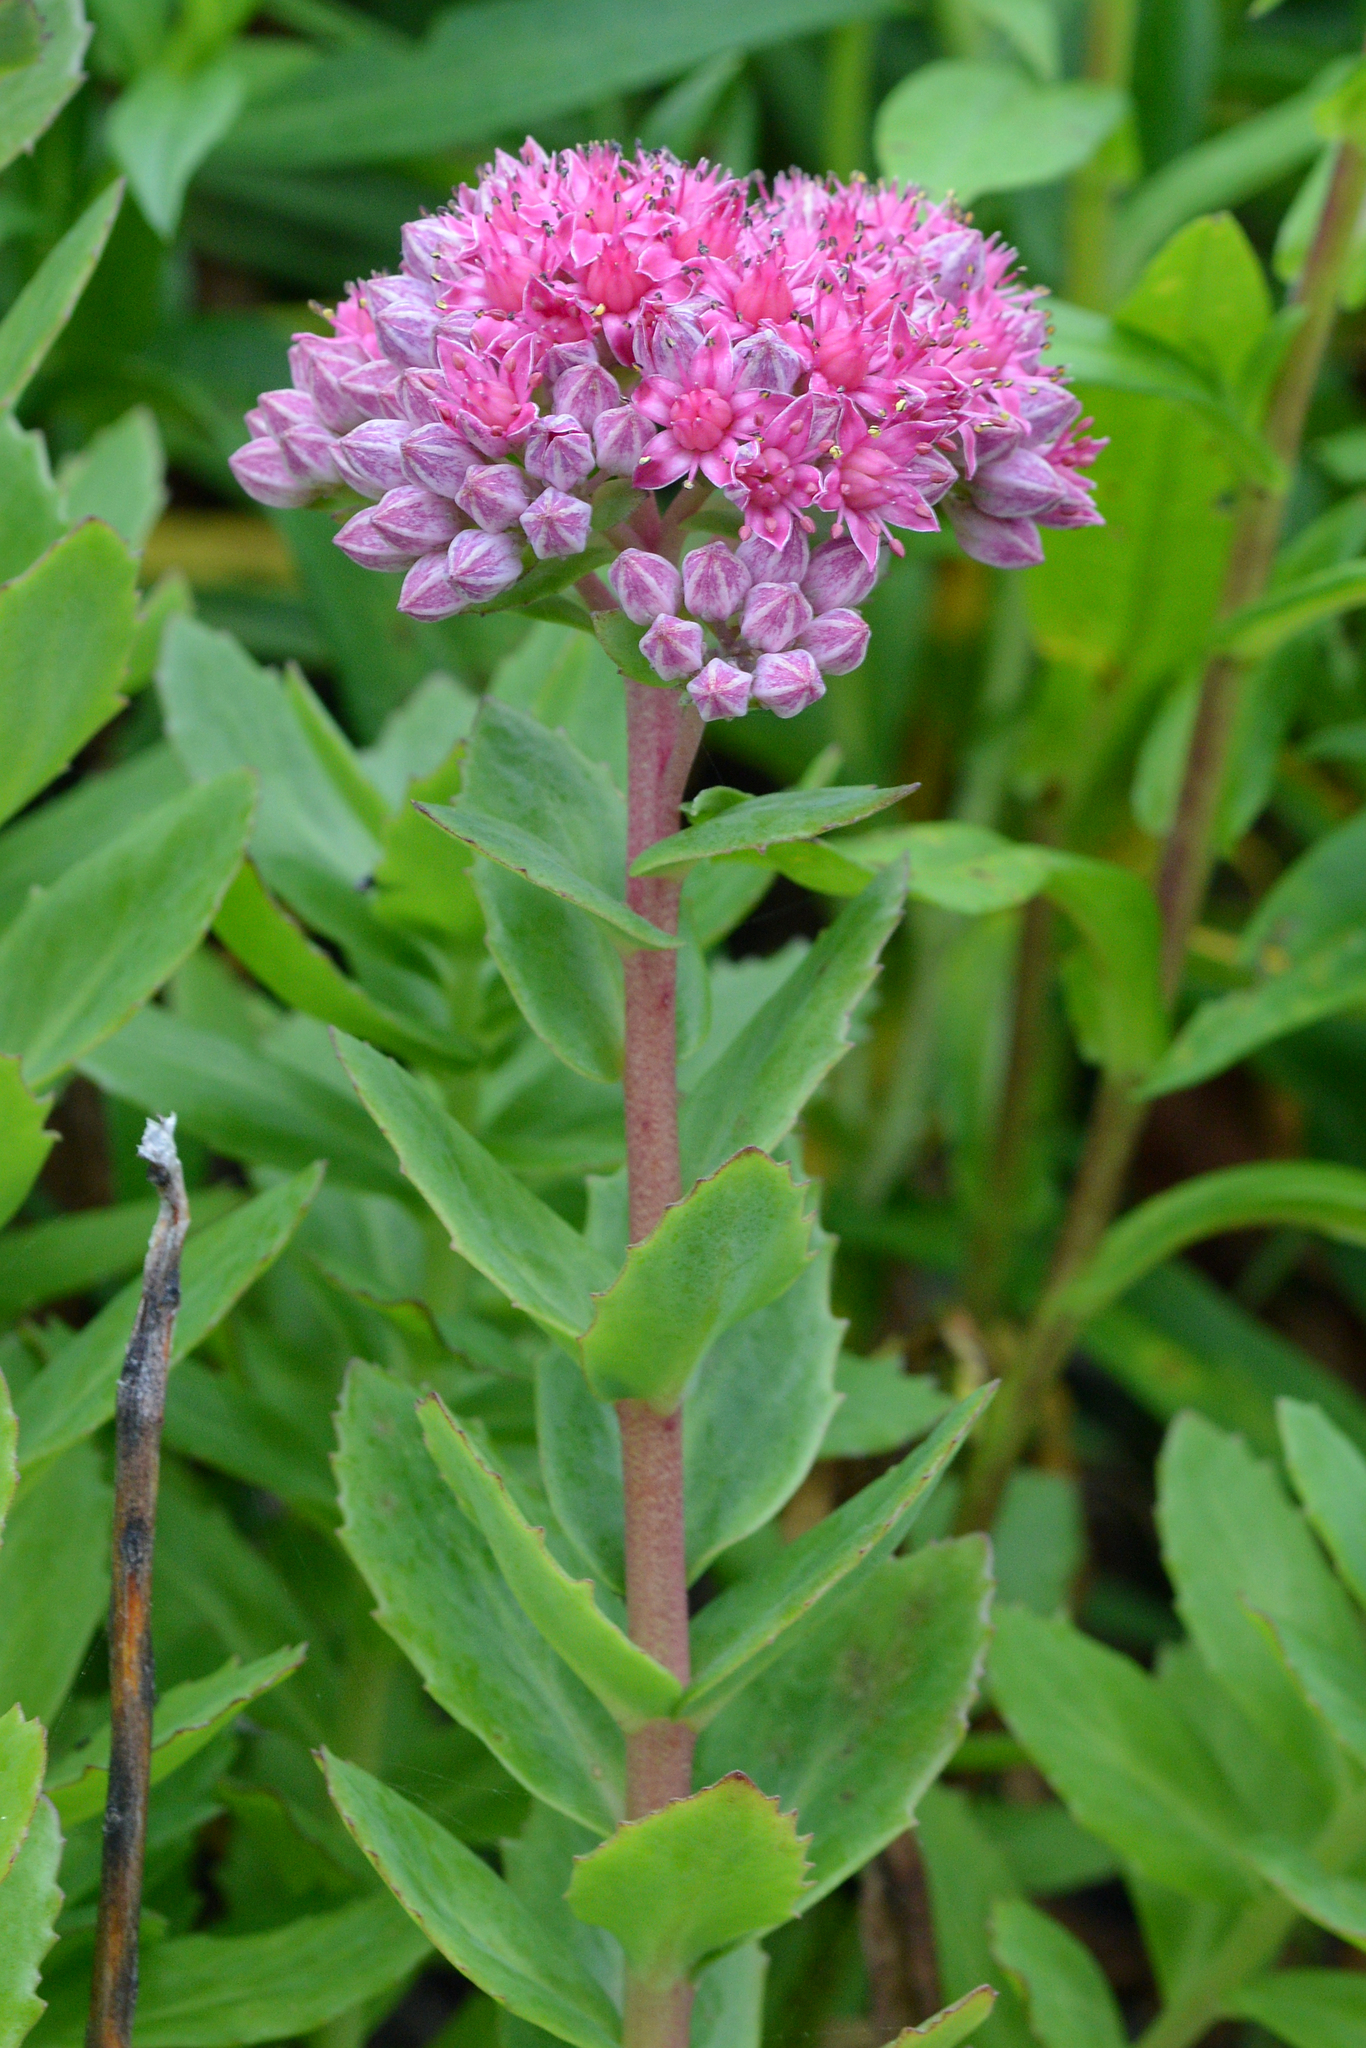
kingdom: Plantae
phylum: Tracheophyta
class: Magnoliopsida
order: Saxifragales
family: Crassulaceae
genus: Hylotelephium
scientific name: Hylotelephium telephium
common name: Live-forever
